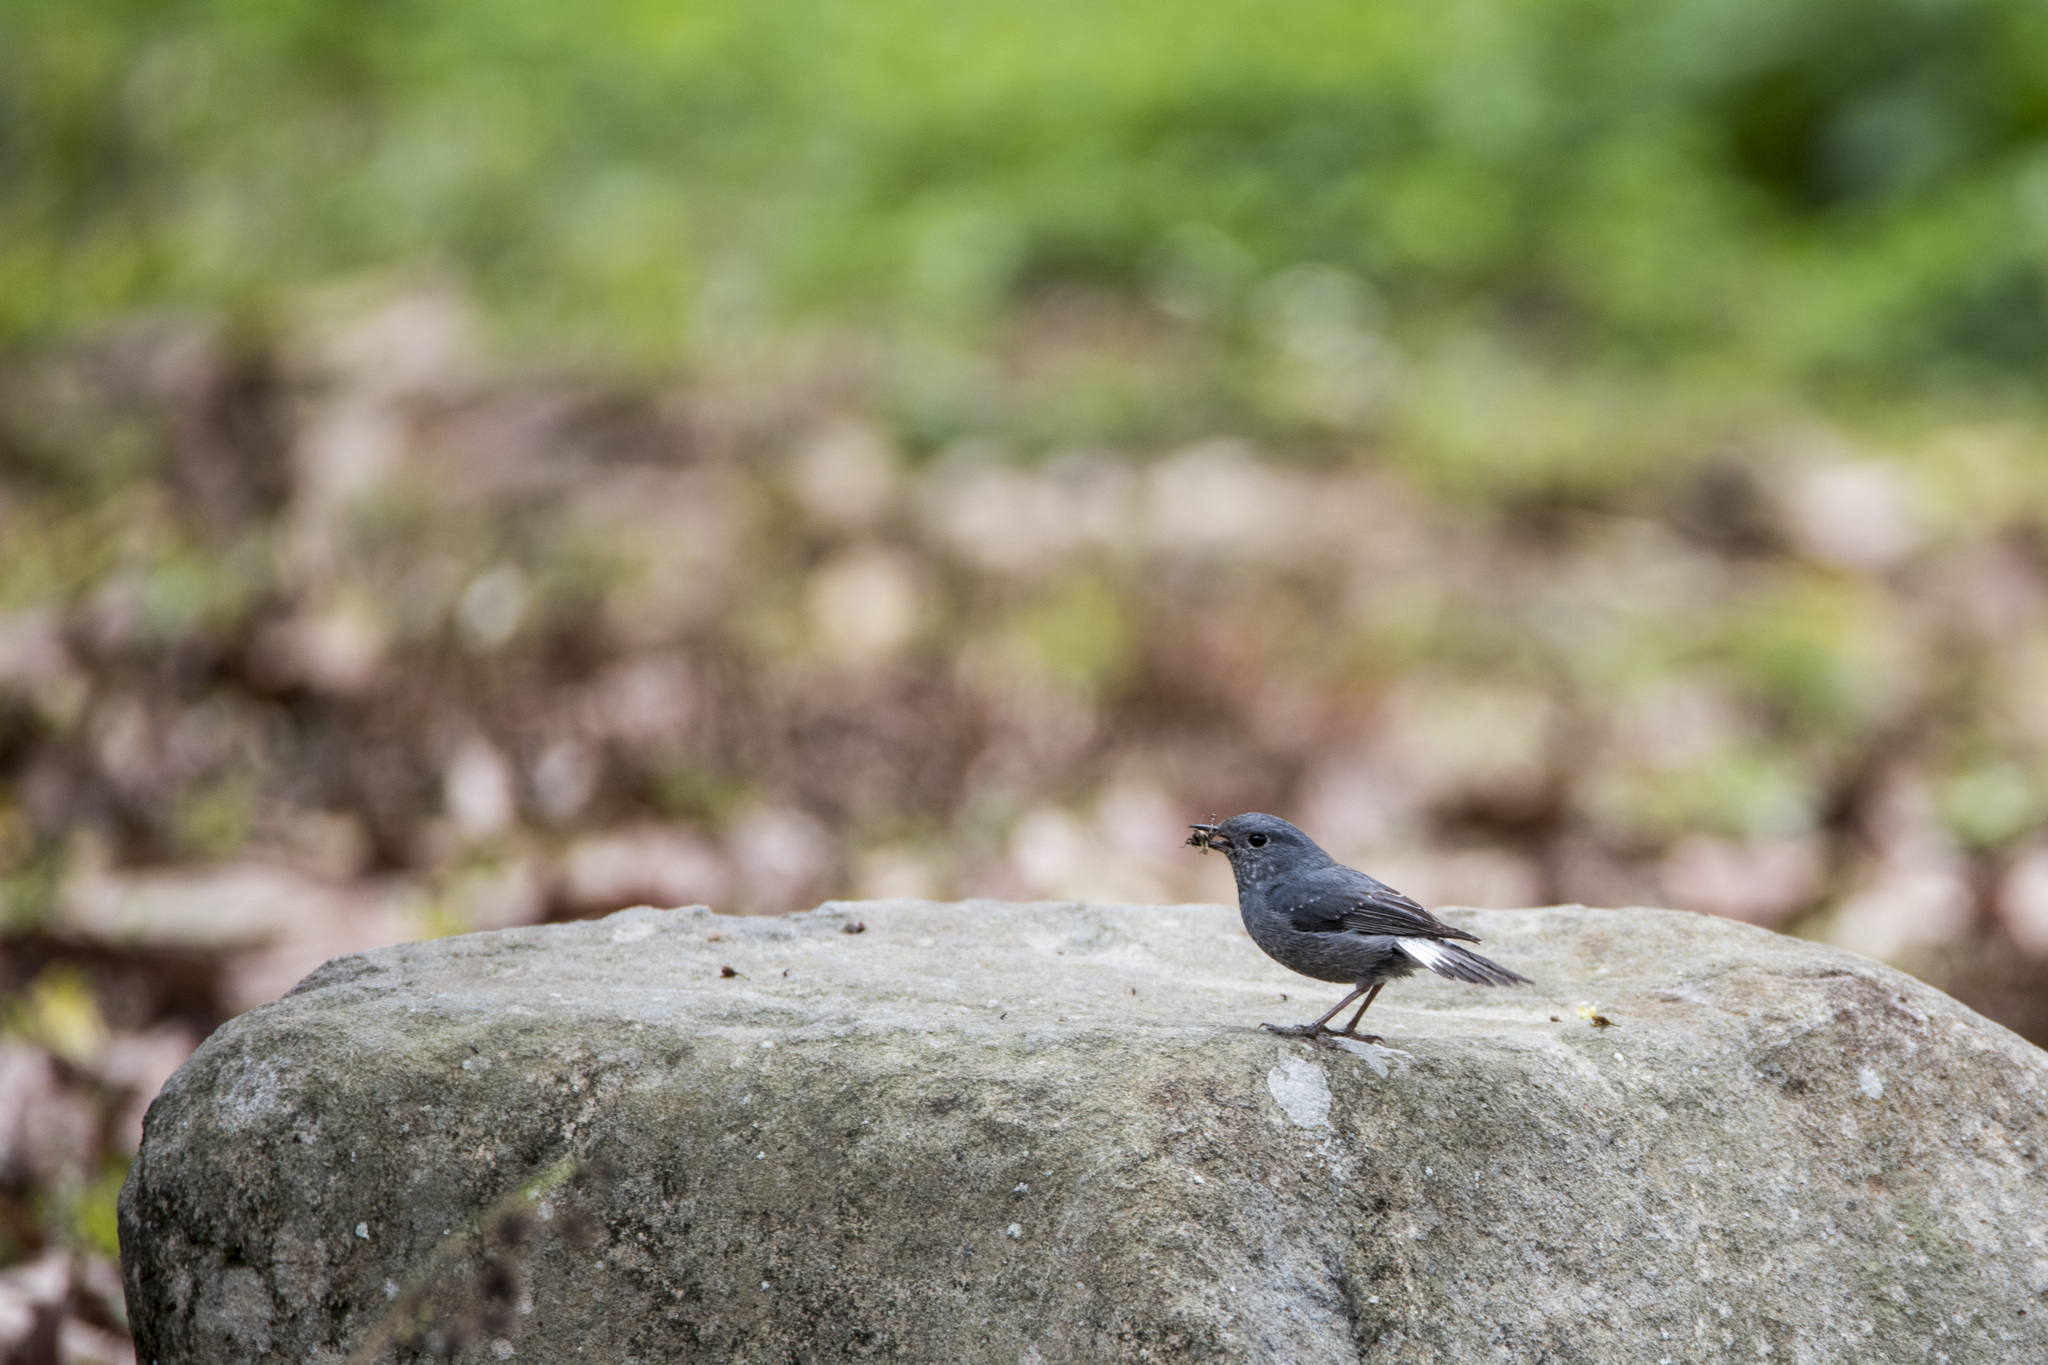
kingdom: Animalia
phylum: Chordata
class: Aves
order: Passeriformes
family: Muscicapidae
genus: Rhyacornis
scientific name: Rhyacornis fuliginosa
